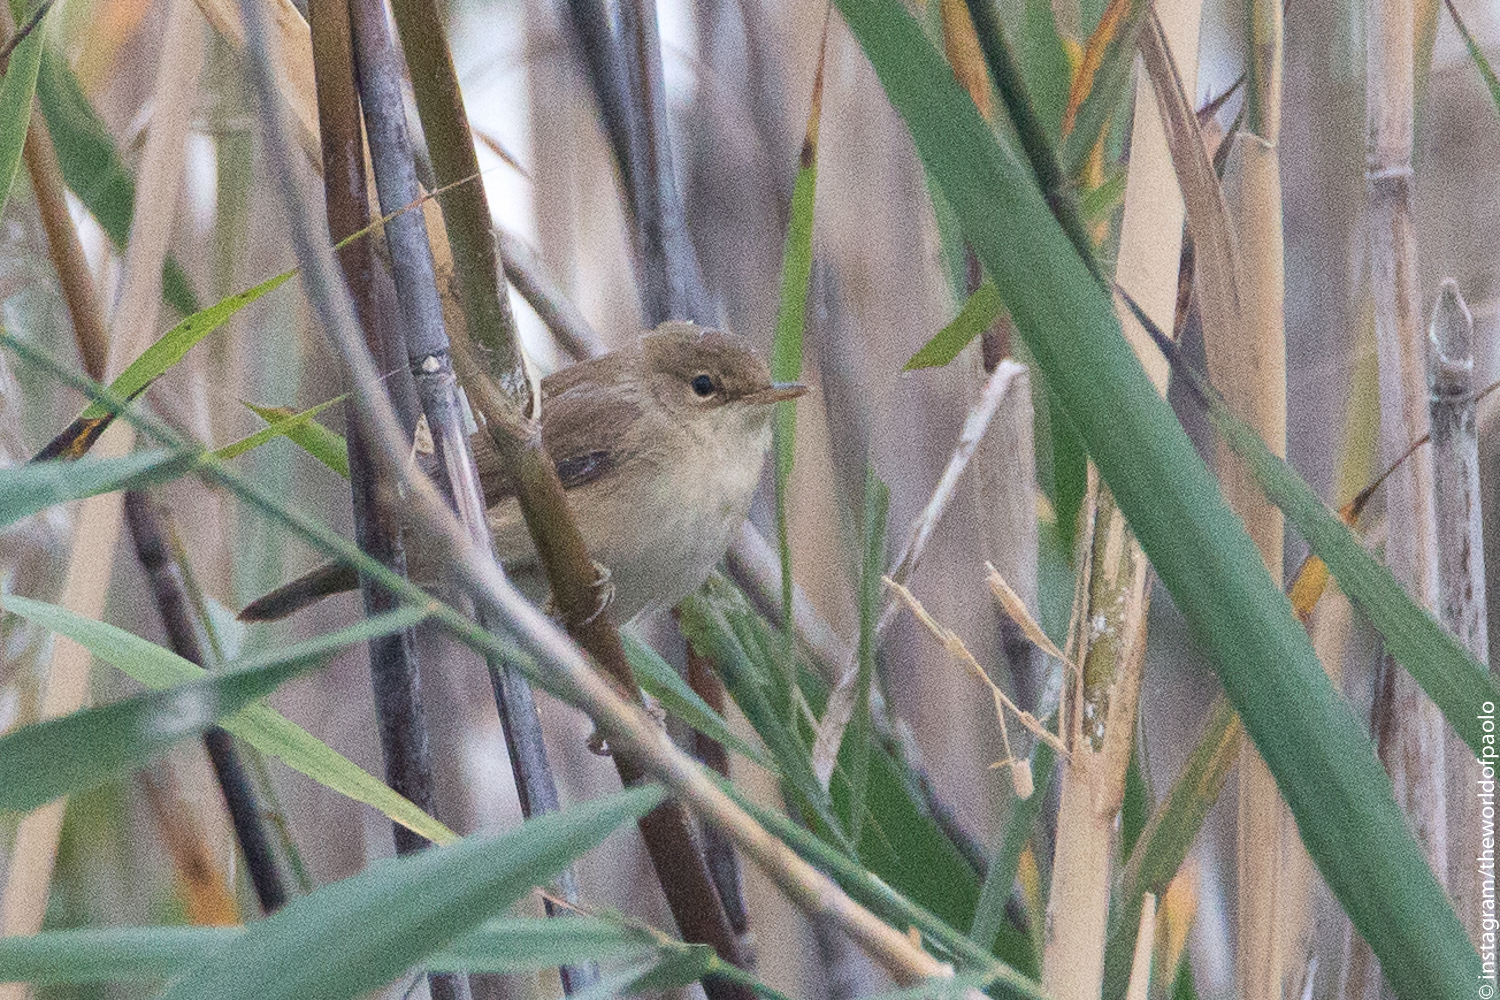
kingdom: Animalia
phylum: Chordata
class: Aves
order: Passeriformes
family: Acrocephalidae
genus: Acrocephalus
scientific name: Acrocephalus scirpaceus
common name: Eurasian reed warbler
